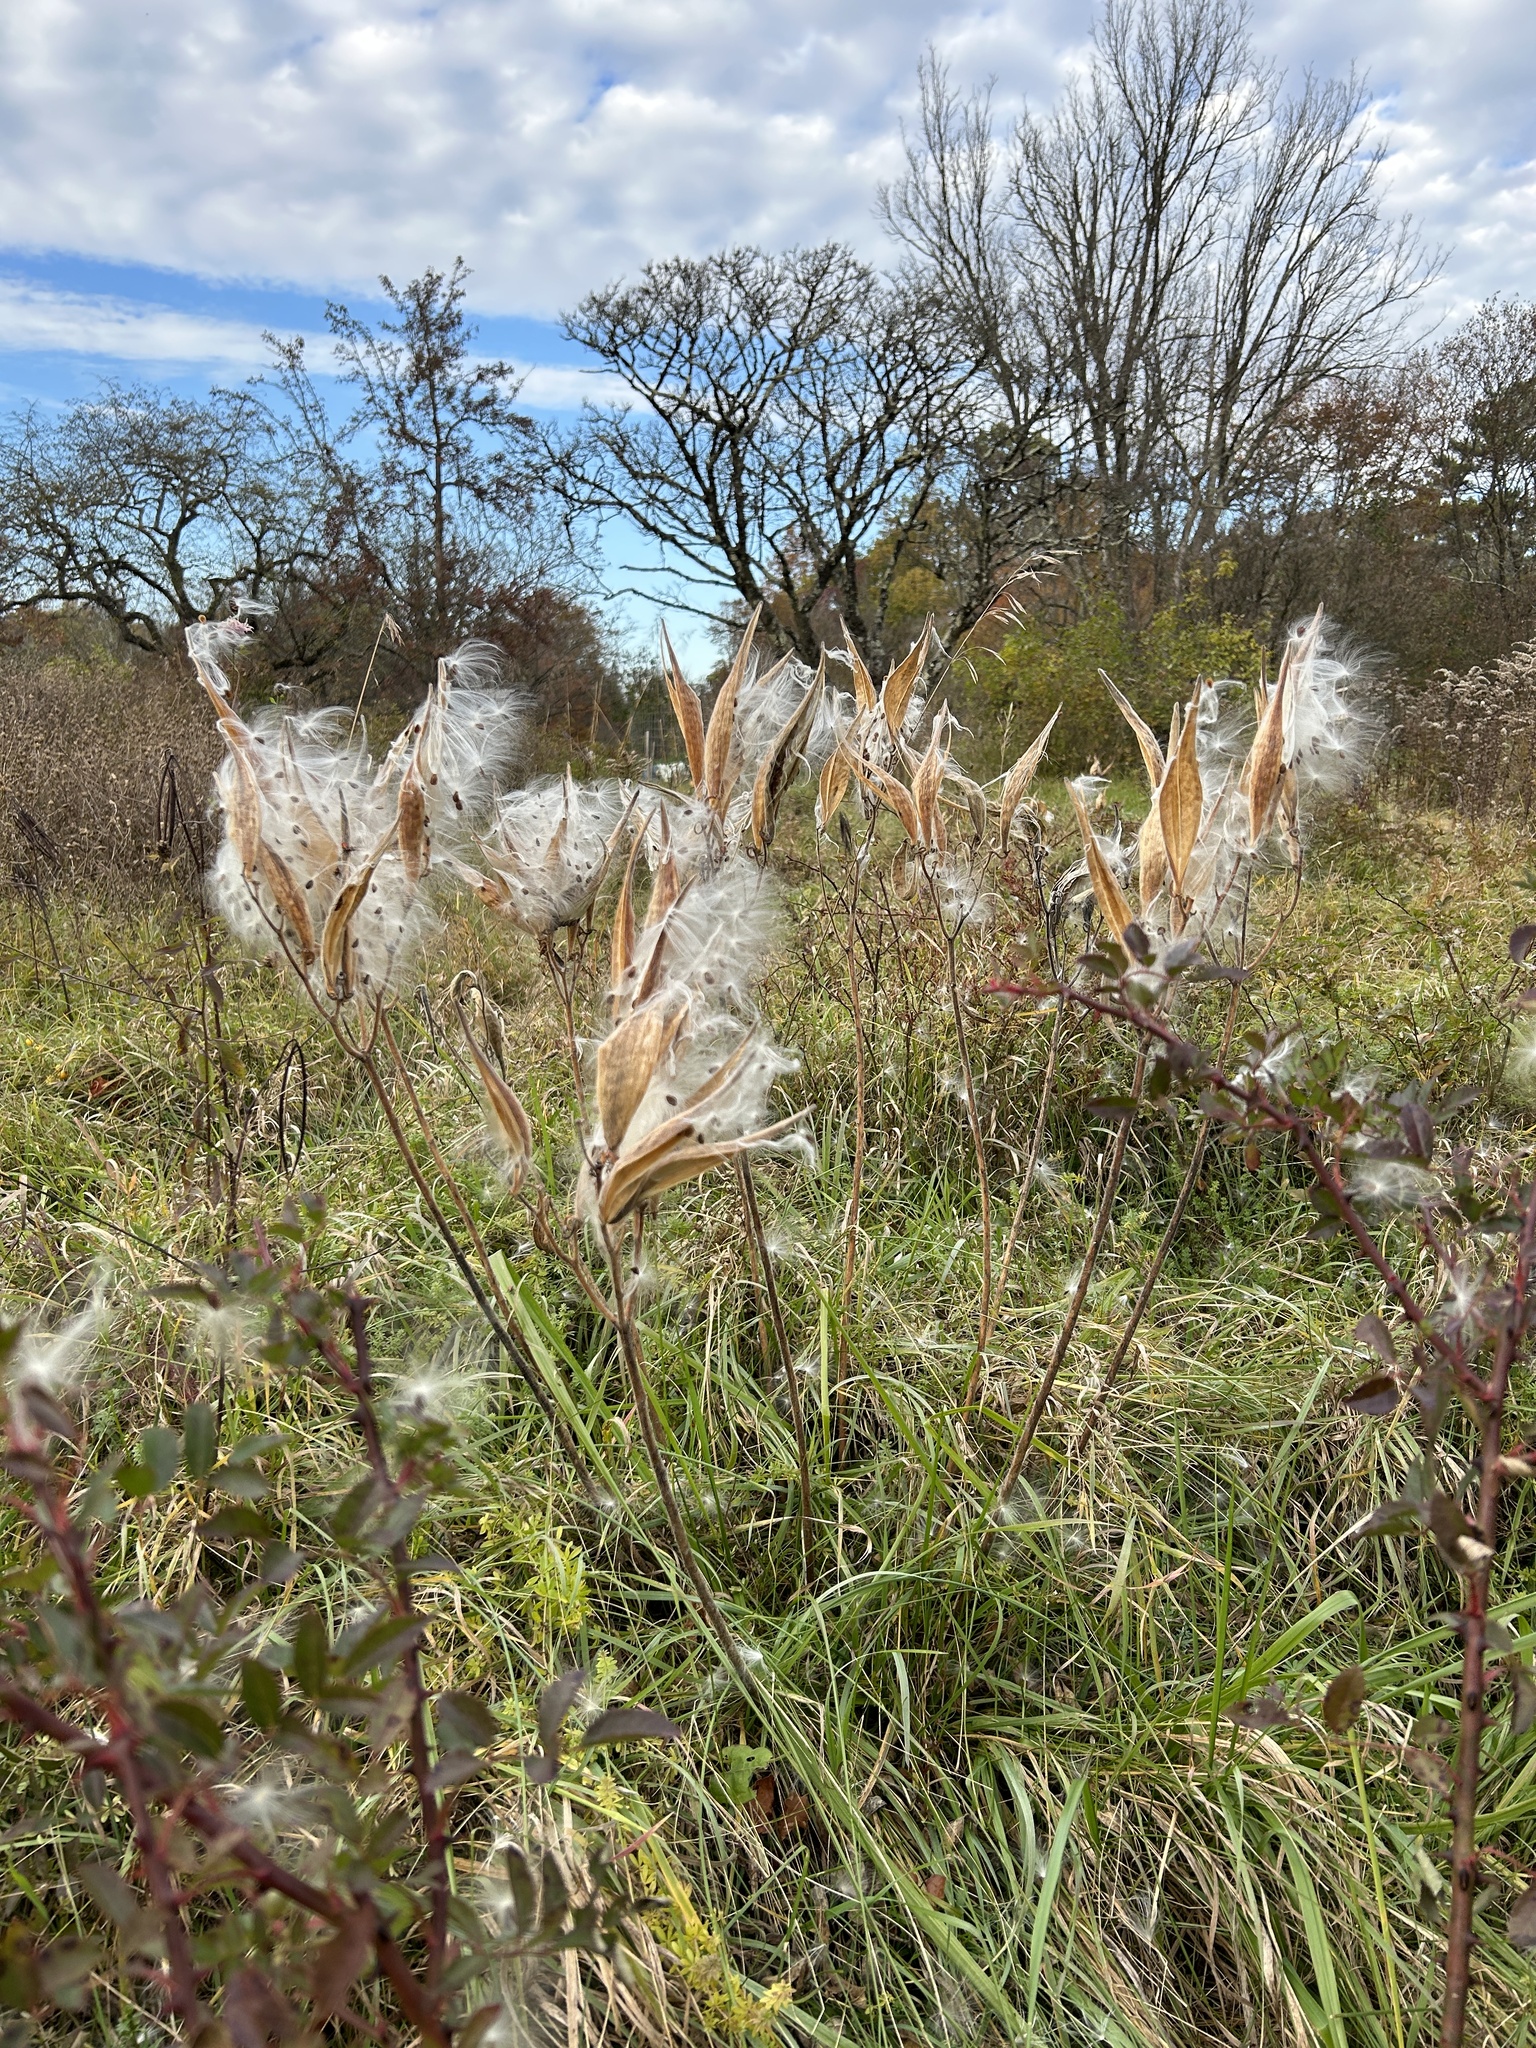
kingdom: Plantae
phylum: Tracheophyta
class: Magnoliopsida
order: Gentianales
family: Apocynaceae
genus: Asclepias
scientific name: Asclepias tuberosa
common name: Butterfly milkweed
